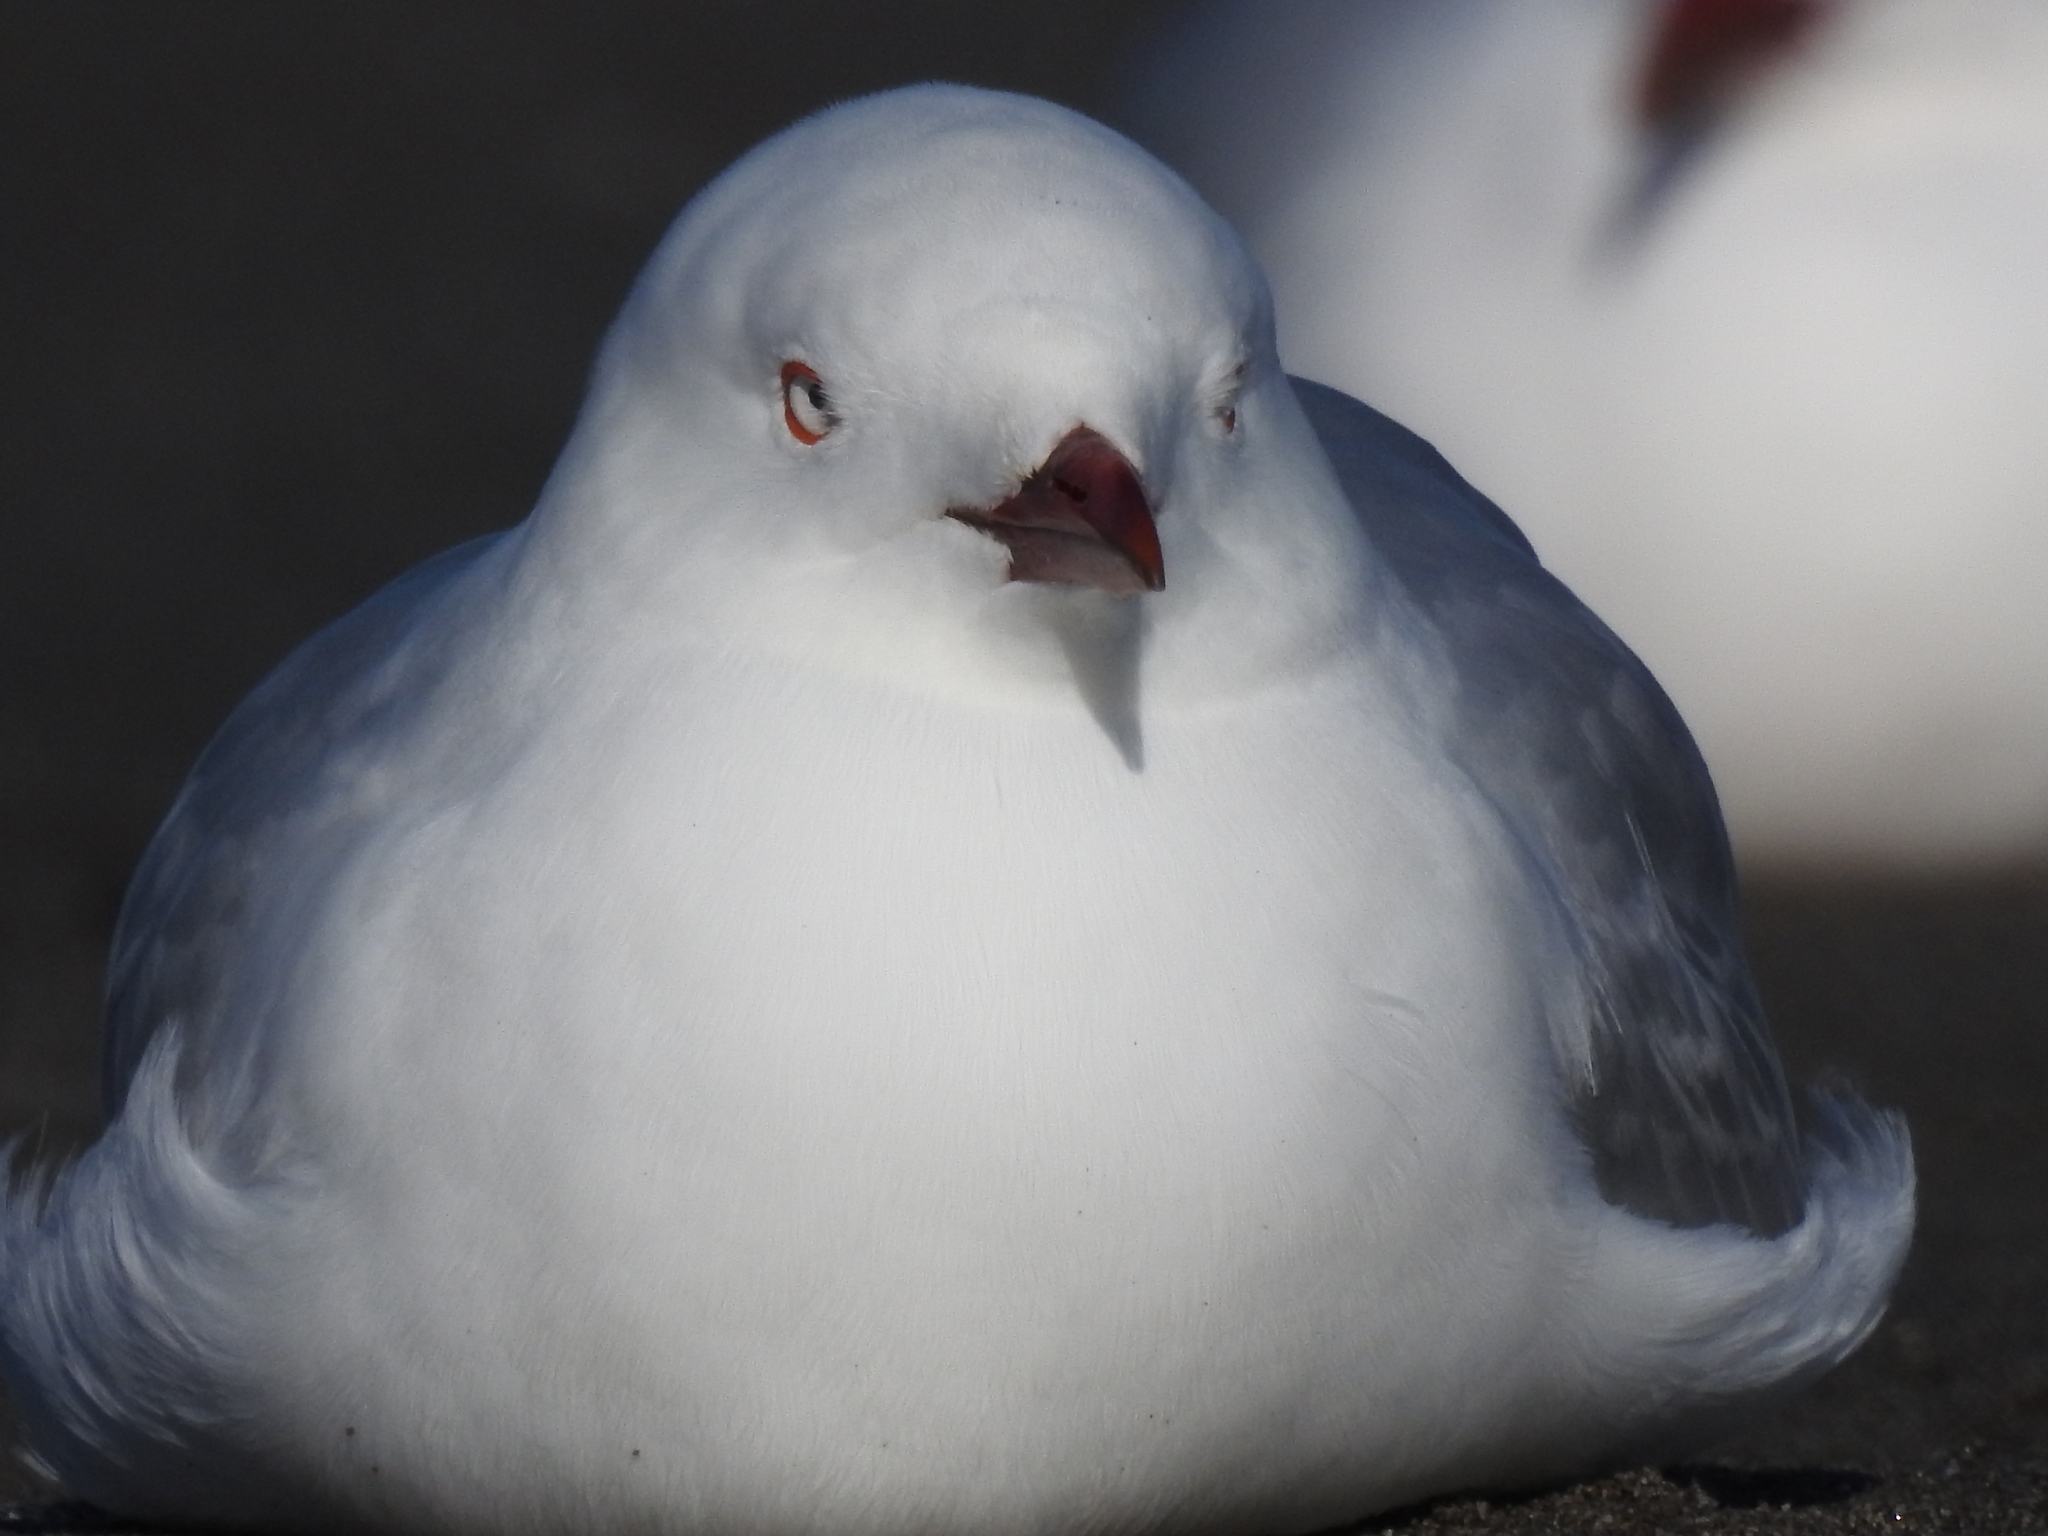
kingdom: Animalia
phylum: Chordata
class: Aves
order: Charadriiformes
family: Laridae
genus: Chroicocephalus
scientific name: Chroicocephalus novaehollandiae
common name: Silver gull
